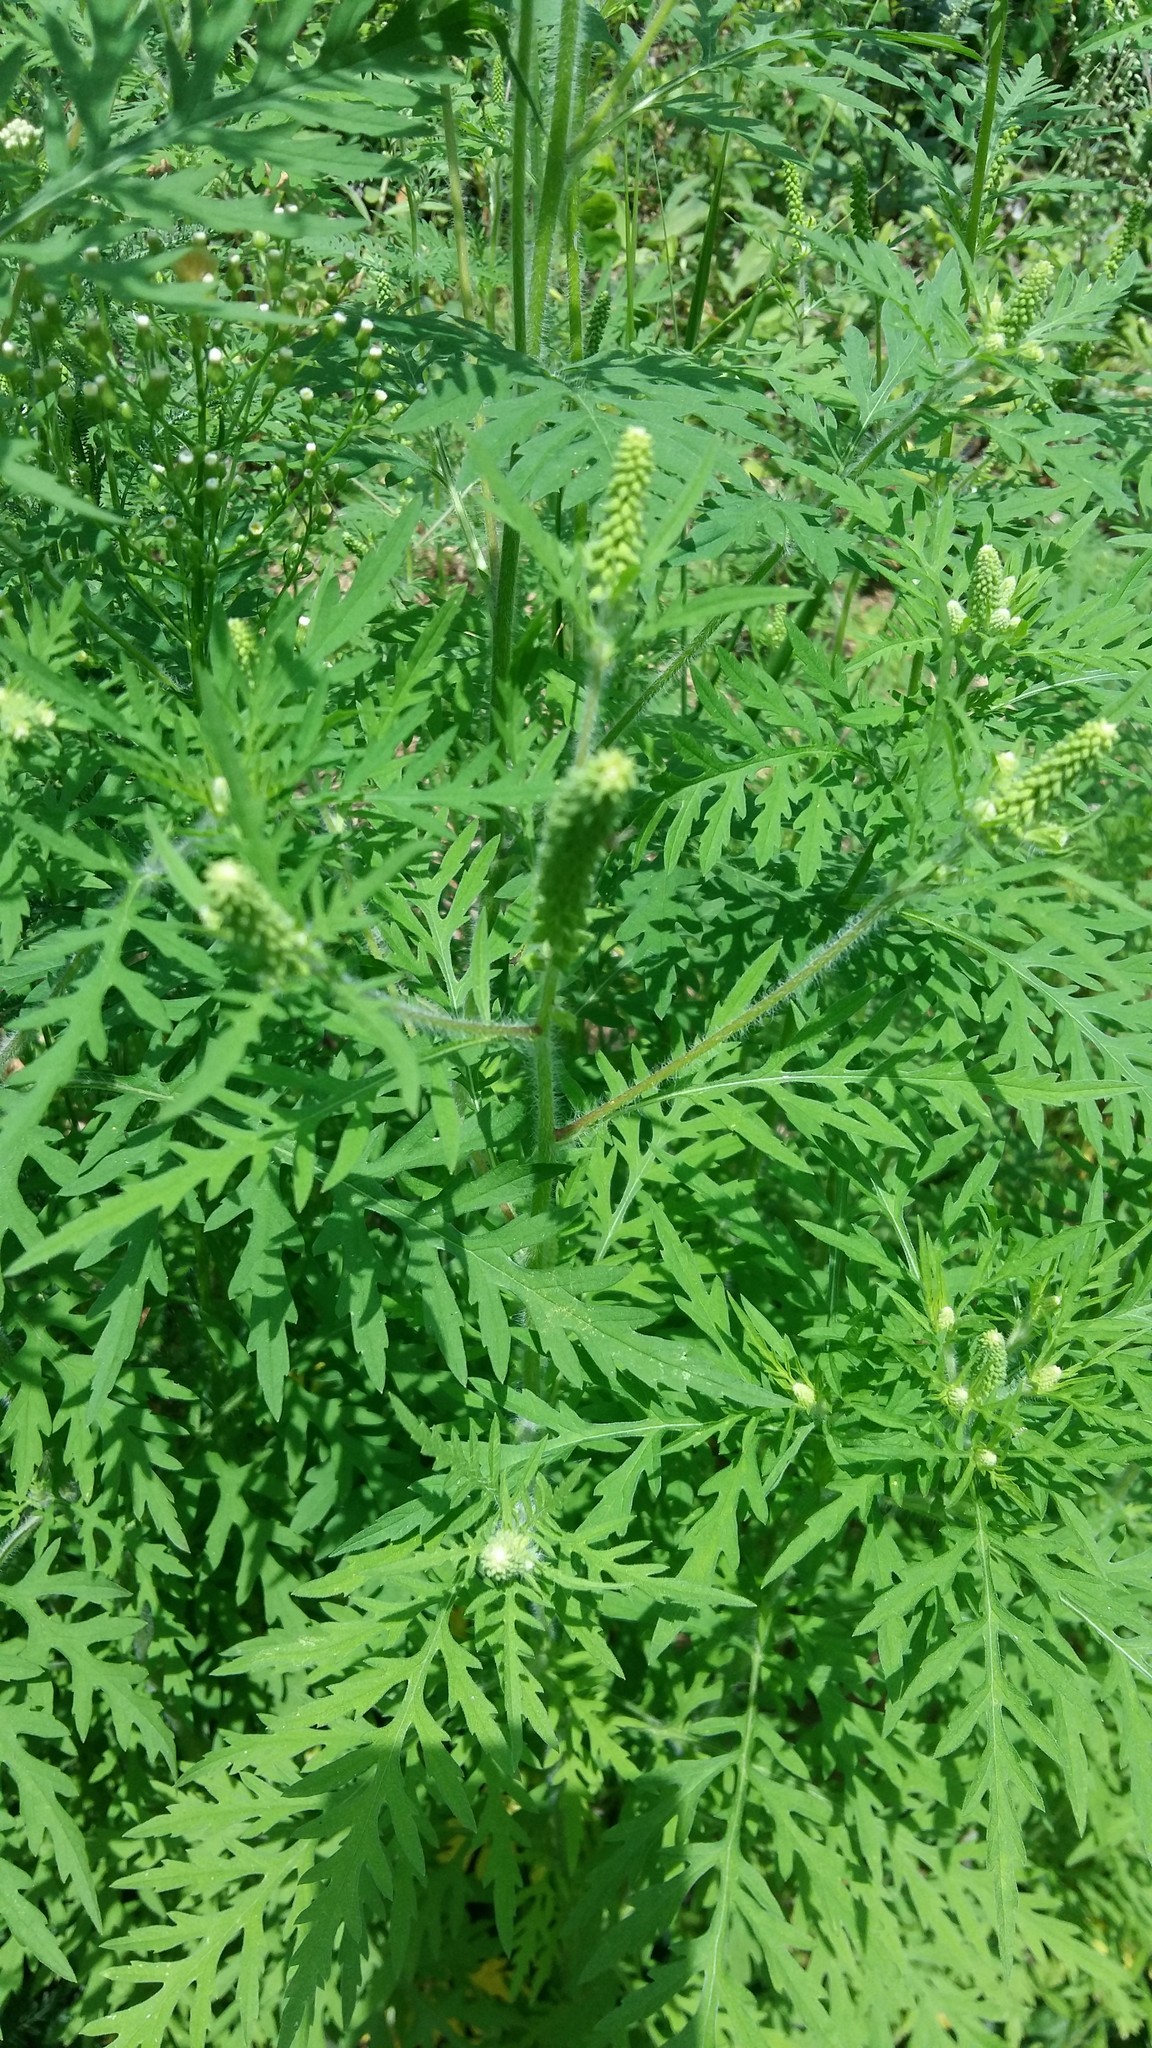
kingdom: Plantae
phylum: Tracheophyta
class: Magnoliopsida
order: Asterales
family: Asteraceae
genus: Ambrosia
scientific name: Ambrosia artemisiifolia
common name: Annual ragweed
